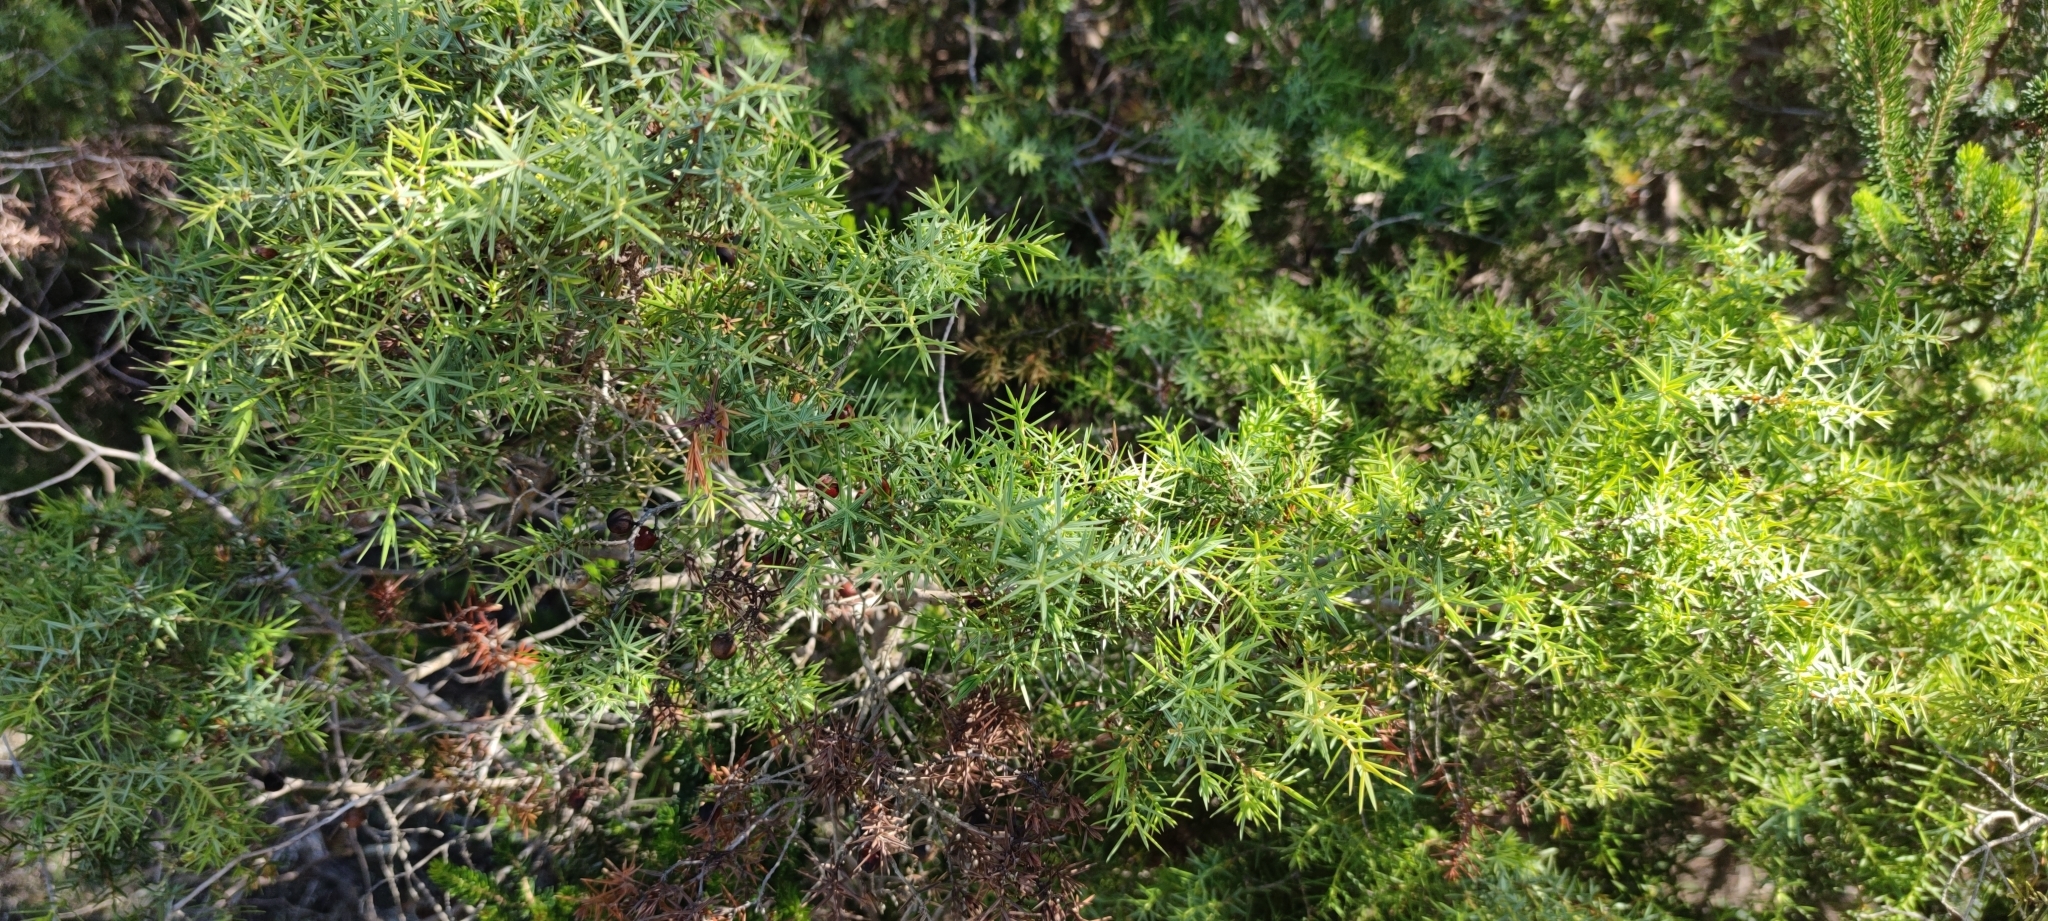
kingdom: Plantae
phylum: Tracheophyta
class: Pinopsida
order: Pinales
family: Cupressaceae
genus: Juniperus
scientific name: Juniperus oxycedrus
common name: Prickly juniper
